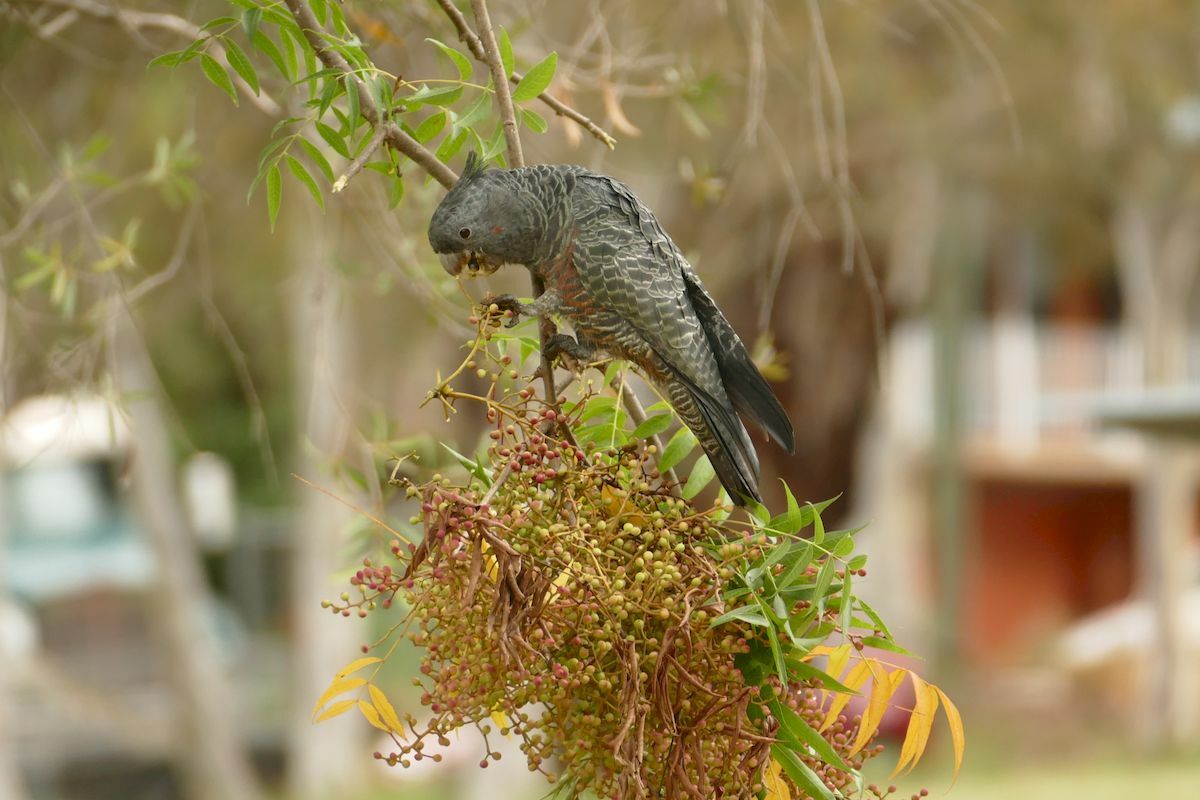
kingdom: Animalia
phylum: Chordata
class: Aves
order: Psittaciformes
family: Psittacidae
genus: Callocephalon
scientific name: Callocephalon fimbriatum
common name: Gang-gang cockatoo
